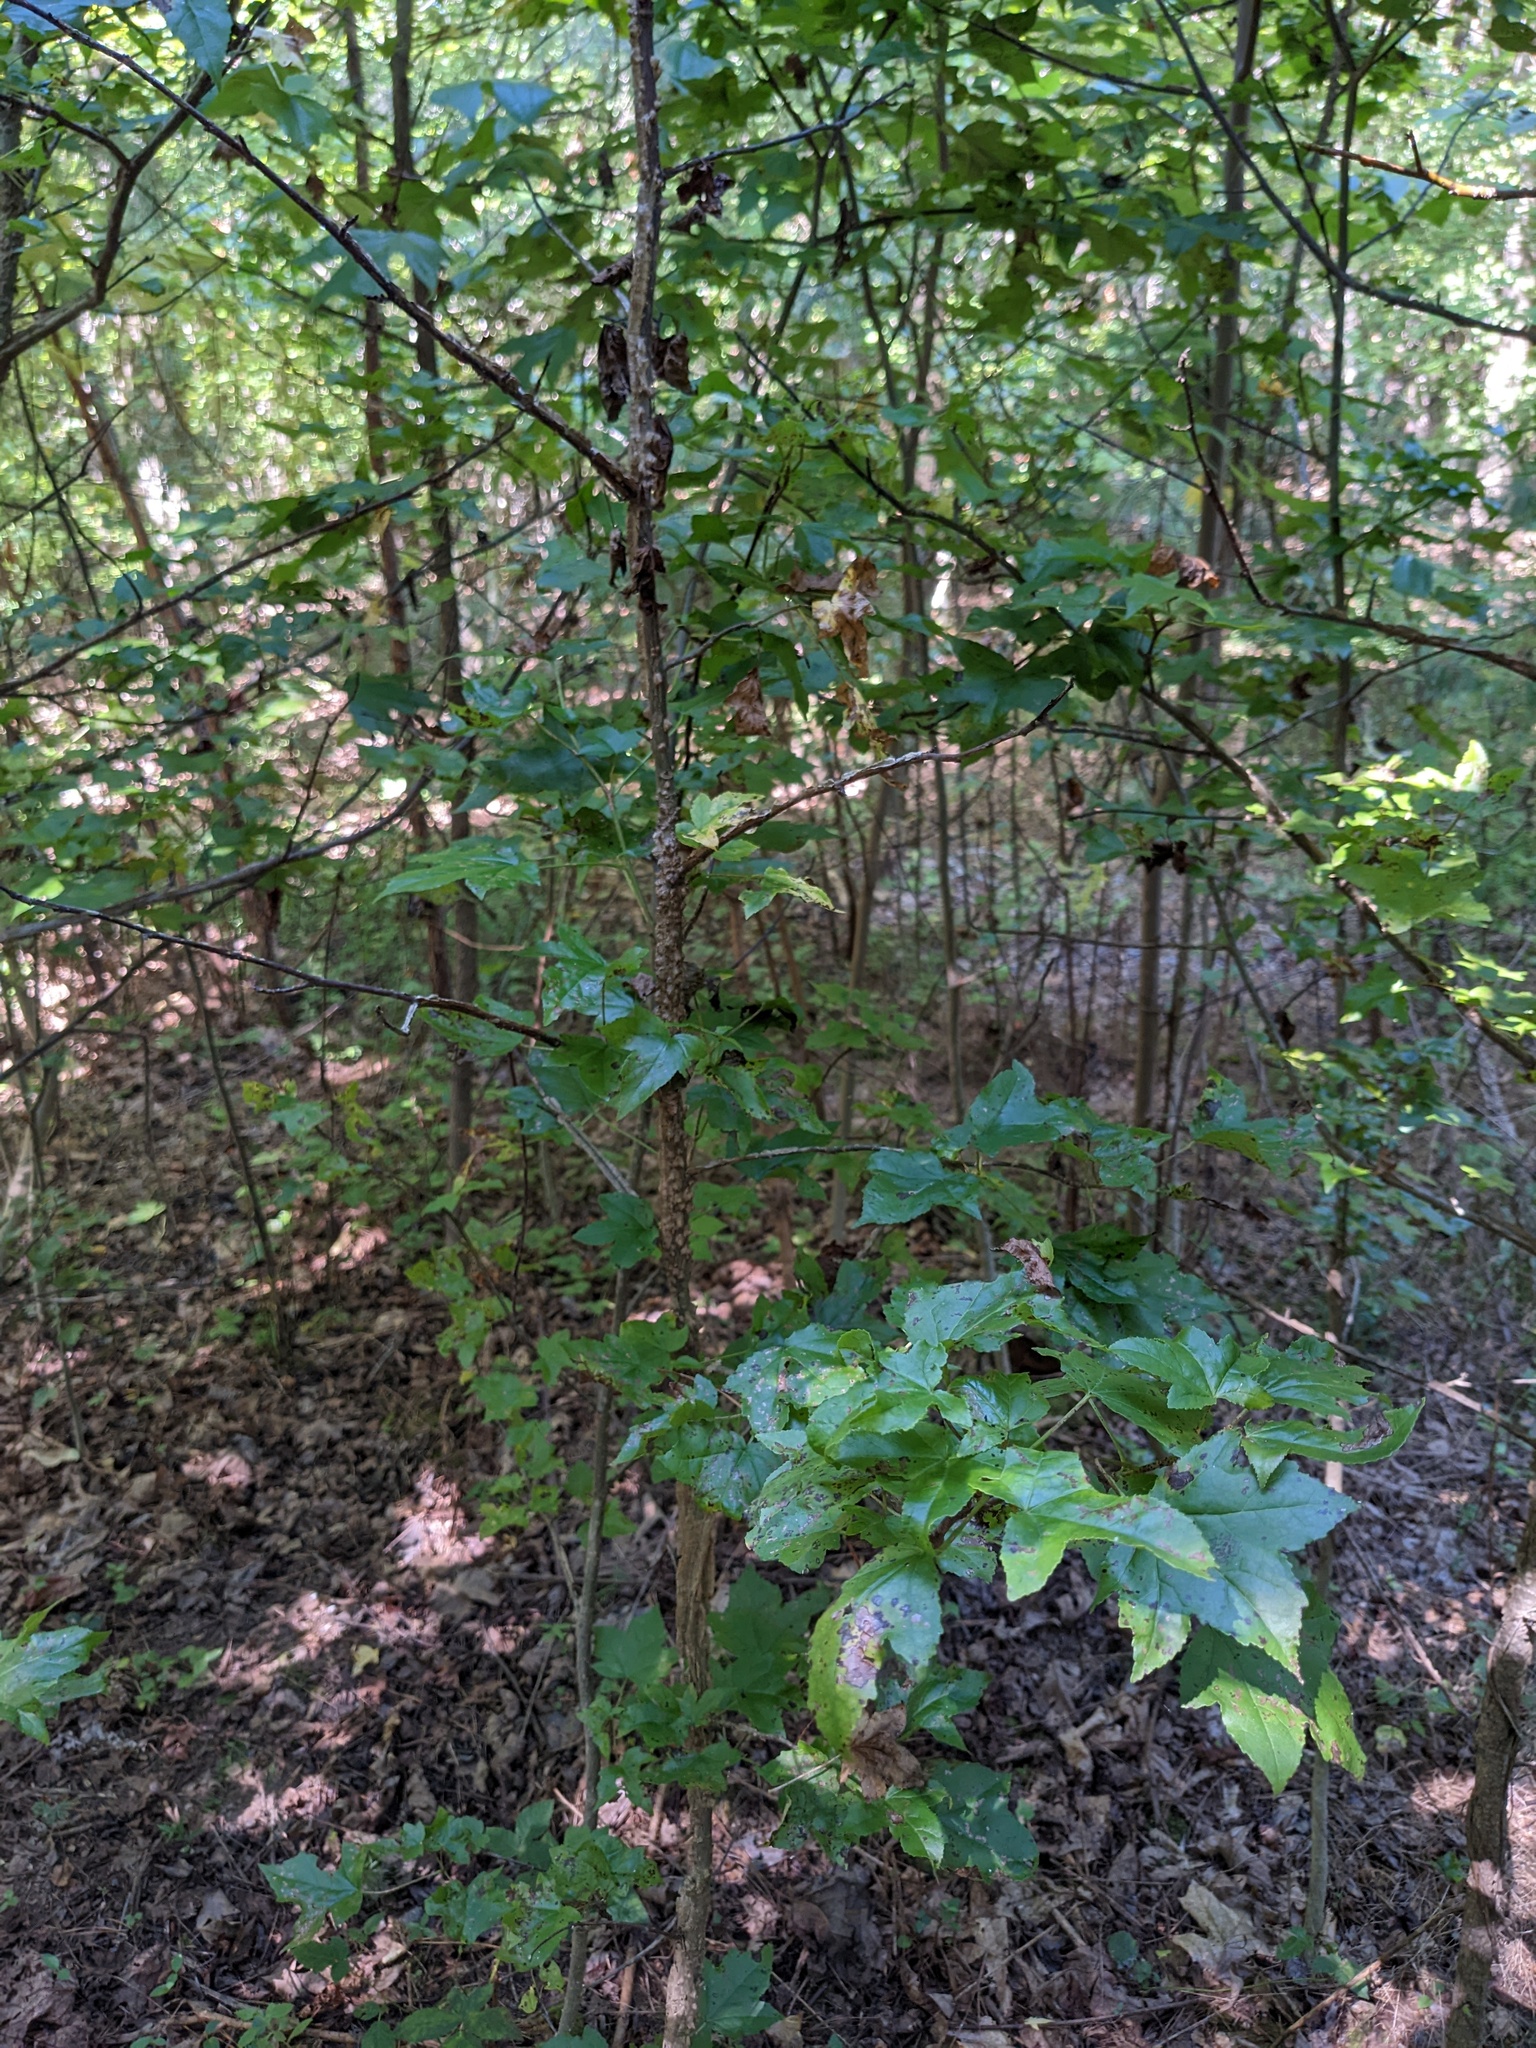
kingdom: Plantae
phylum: Tracheophyta
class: Magnoliopsida
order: Saxifragales
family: Altingiaceae
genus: Liquidambar
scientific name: Liquidambar styraciflua
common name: Sweet gum
